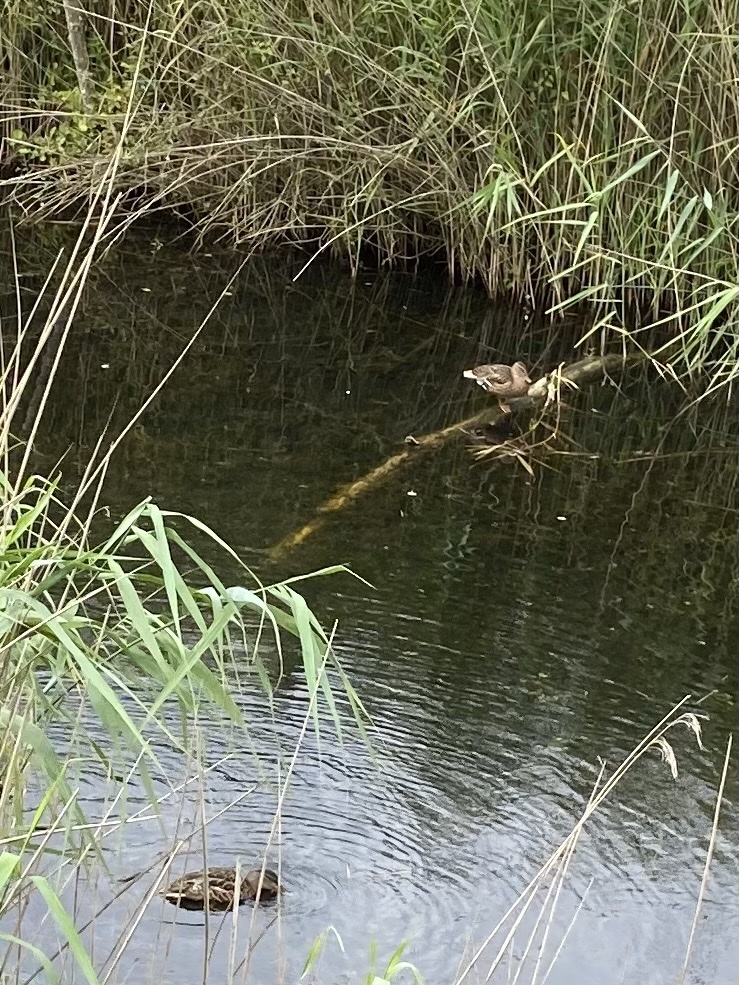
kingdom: Animalia
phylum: Chordata
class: Aves
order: Anseriformes
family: Anatidae
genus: Anas
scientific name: Anas platyrhynchos
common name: Mallard
